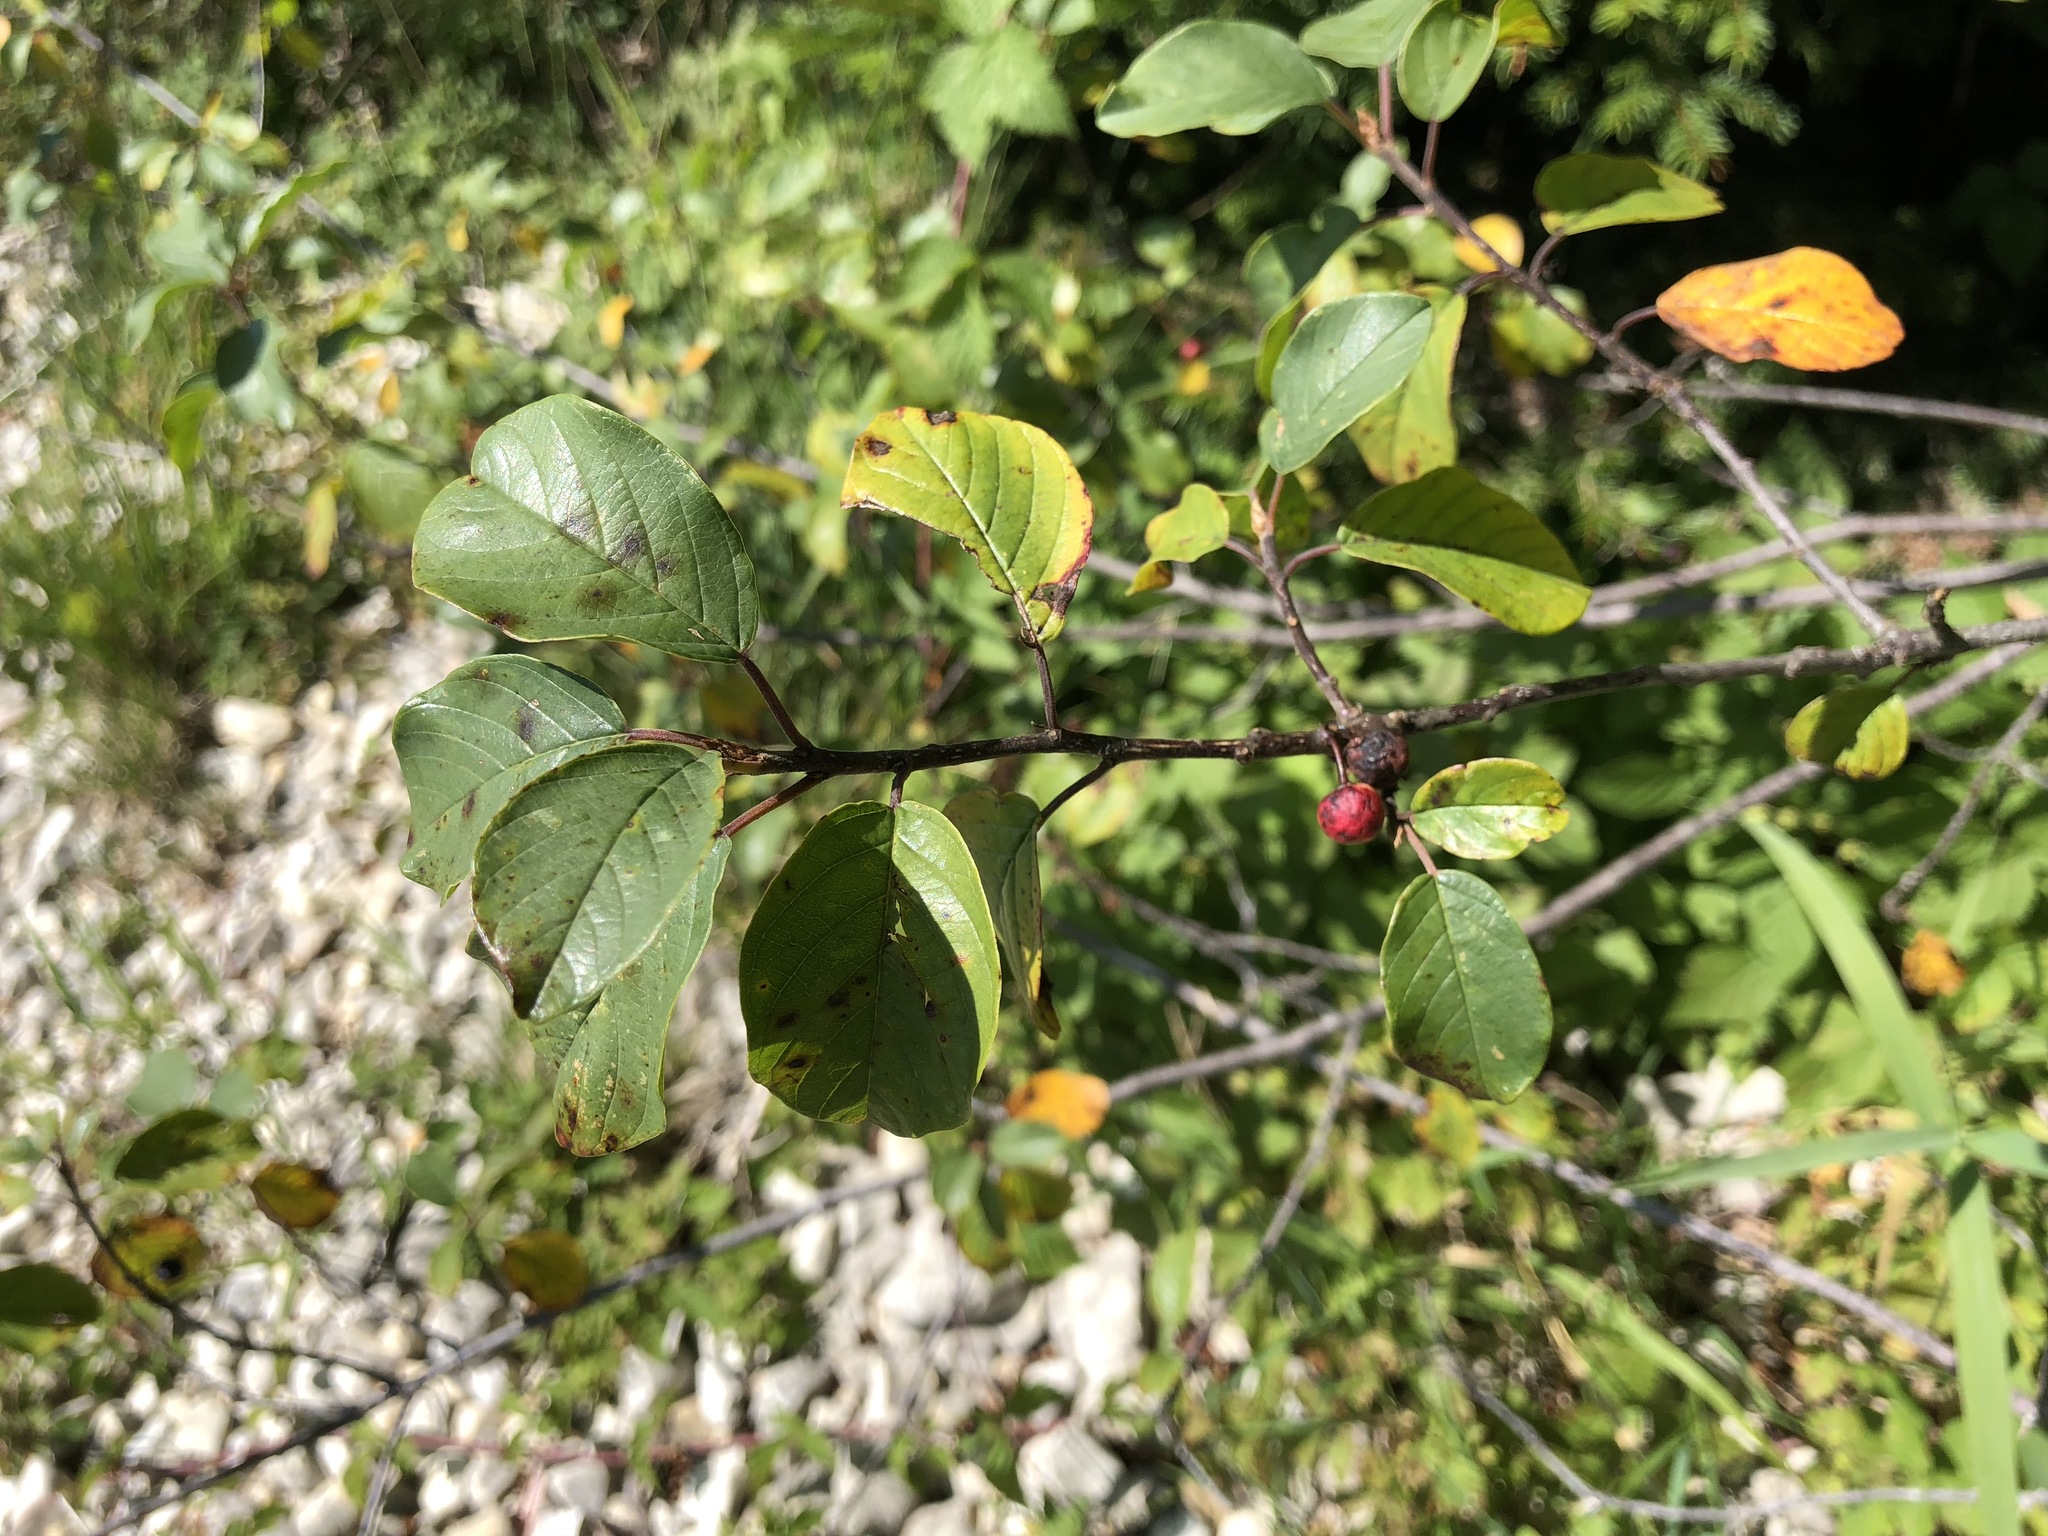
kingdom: Plantae
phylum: Tracheophyta
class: Magnoliopsida
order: Rosales
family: Rhamnaceae
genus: Frangula
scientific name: Frangula alnus
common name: Alder buckthorn
